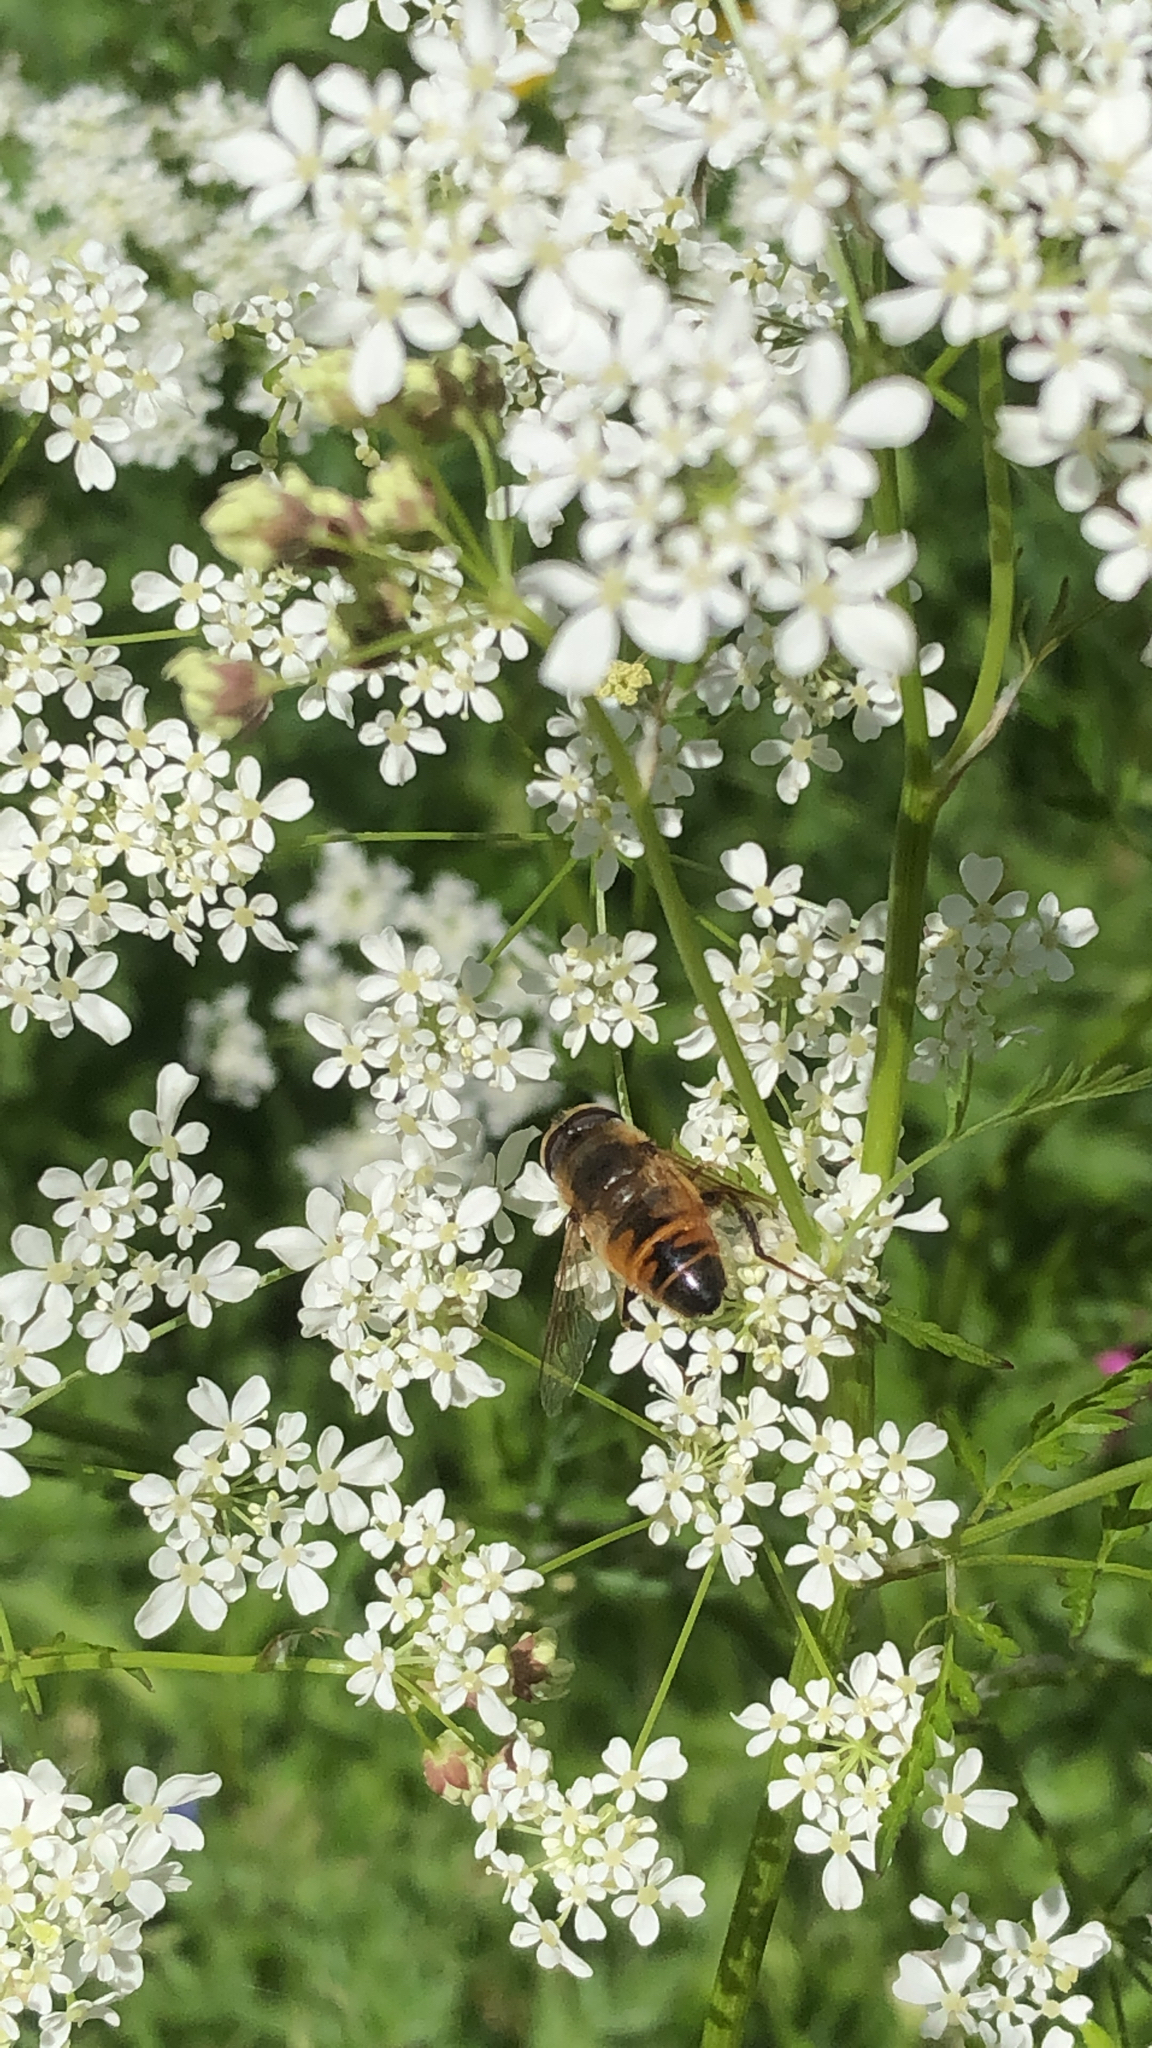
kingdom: Animalia
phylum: Arthropoda
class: Insecta
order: Diptera
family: Syrphidae
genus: Eristalis
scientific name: Eristalis tenax
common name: Drone fly
